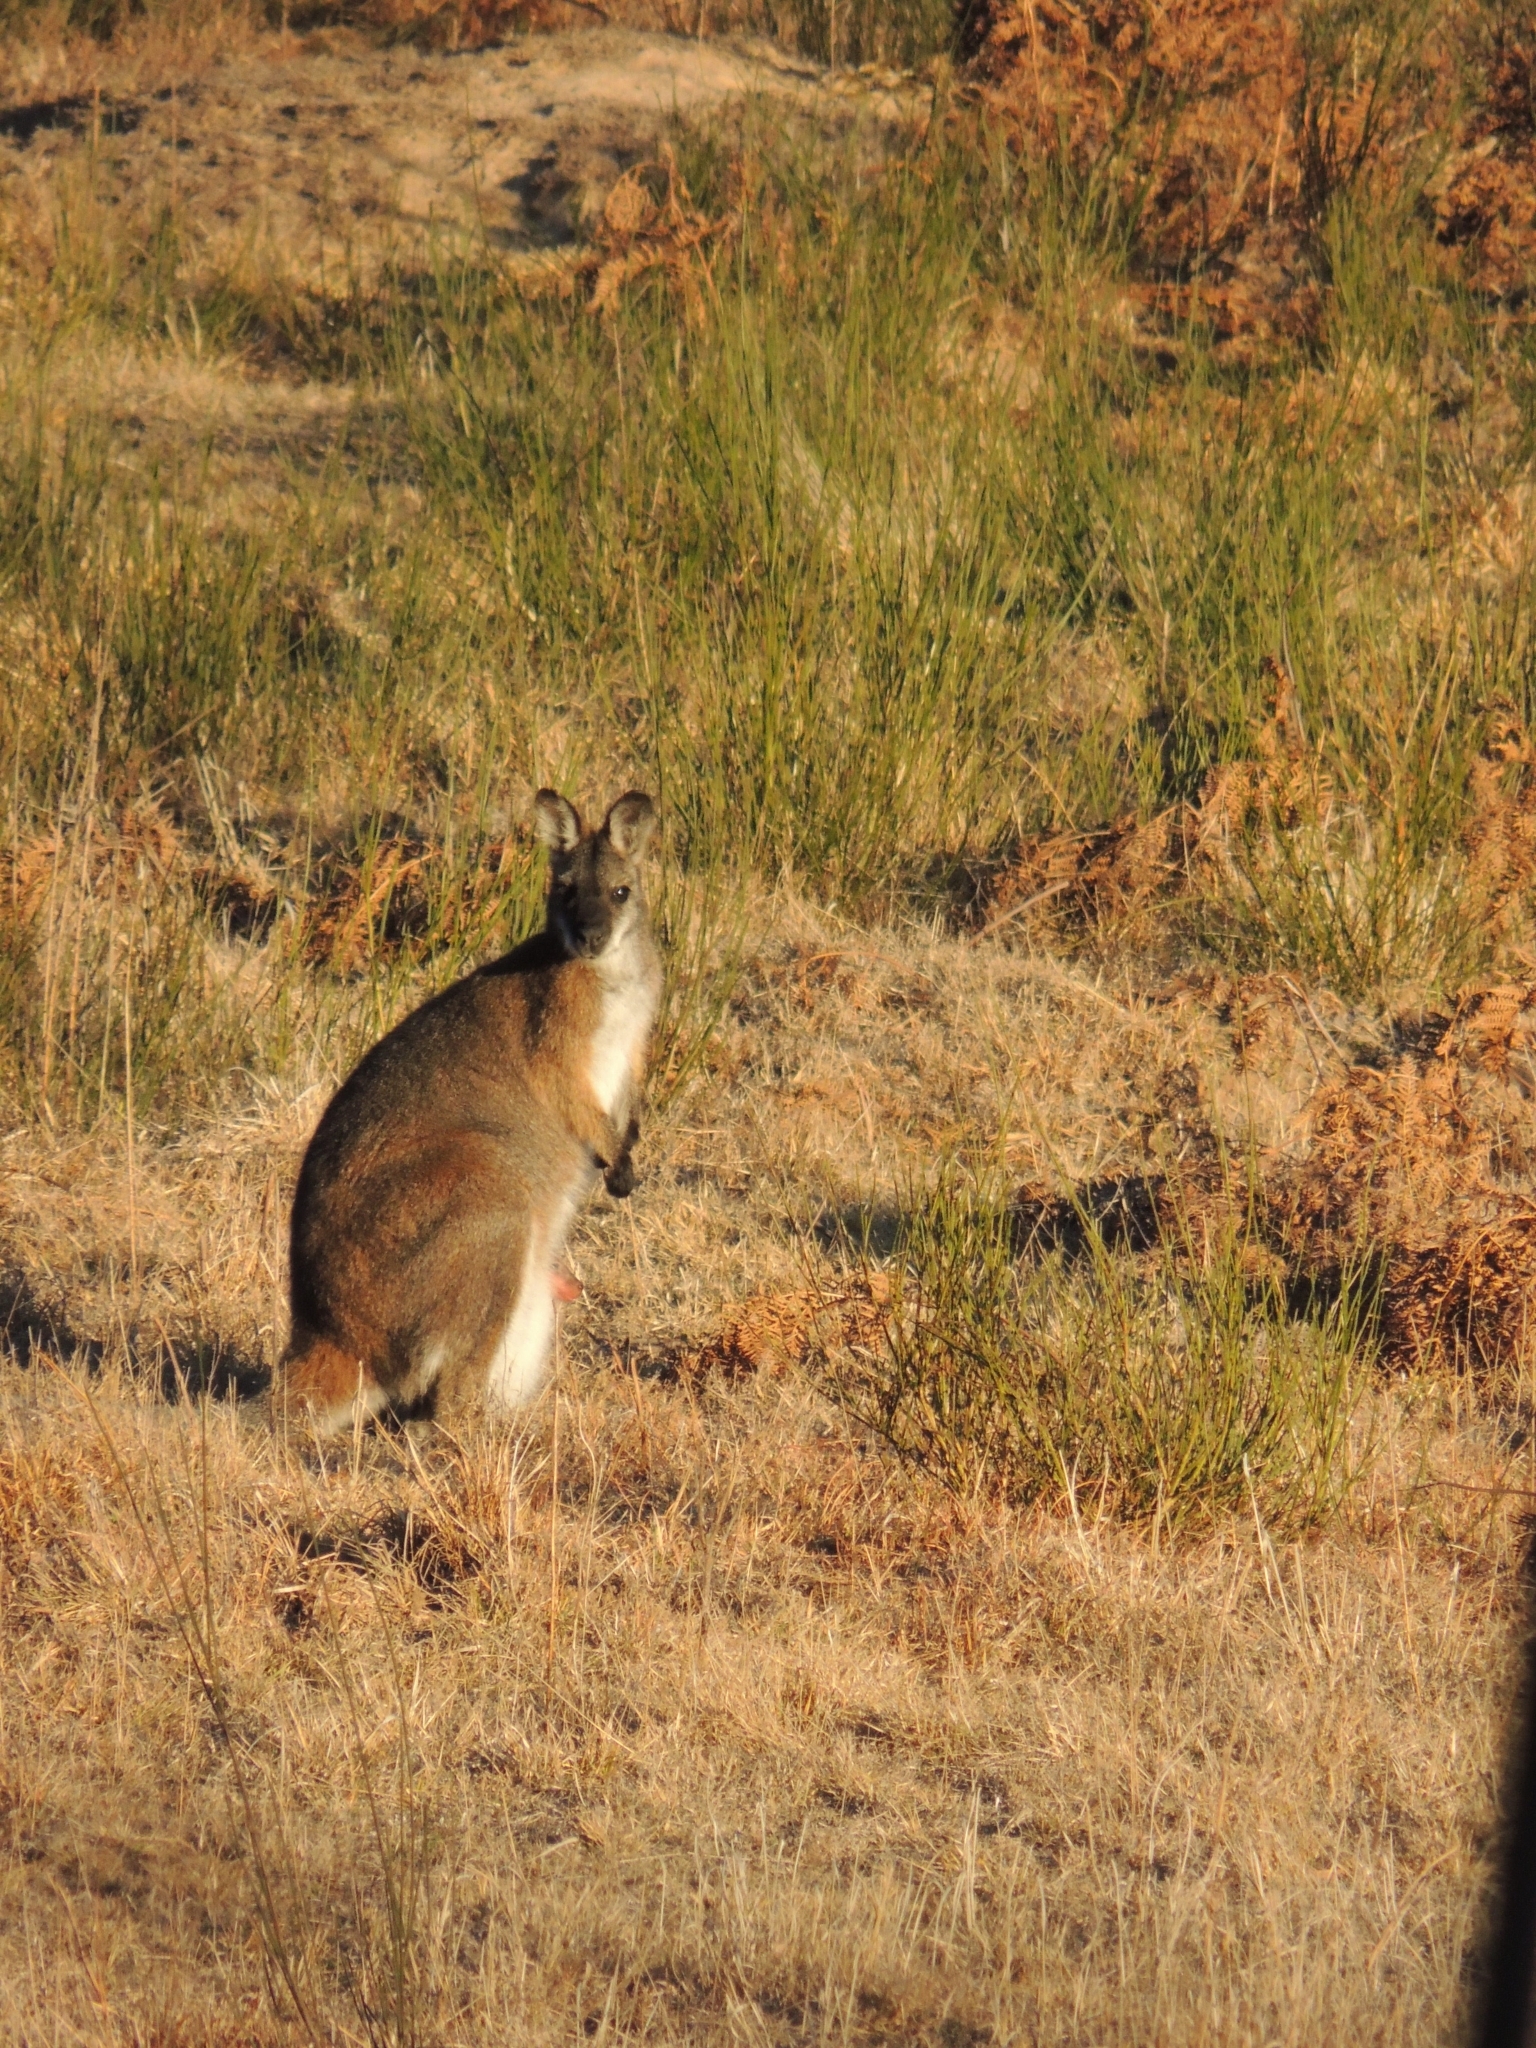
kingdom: Animalia
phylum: Chordata
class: Mammalia
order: Diprotodontia
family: Macropodidae
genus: Notamacropus
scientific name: Notamacropus rufogriseus
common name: Red-necked wallaby
